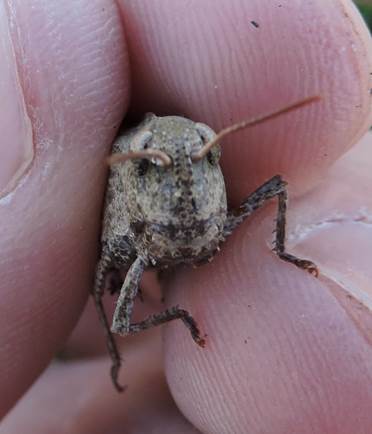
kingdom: Animalia
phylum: Arthropoda
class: Insecta
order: Orthoptera
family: Acrididae
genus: Chortophaga
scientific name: Chortophaga viridifasciata
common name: Green-striped grasshopper
